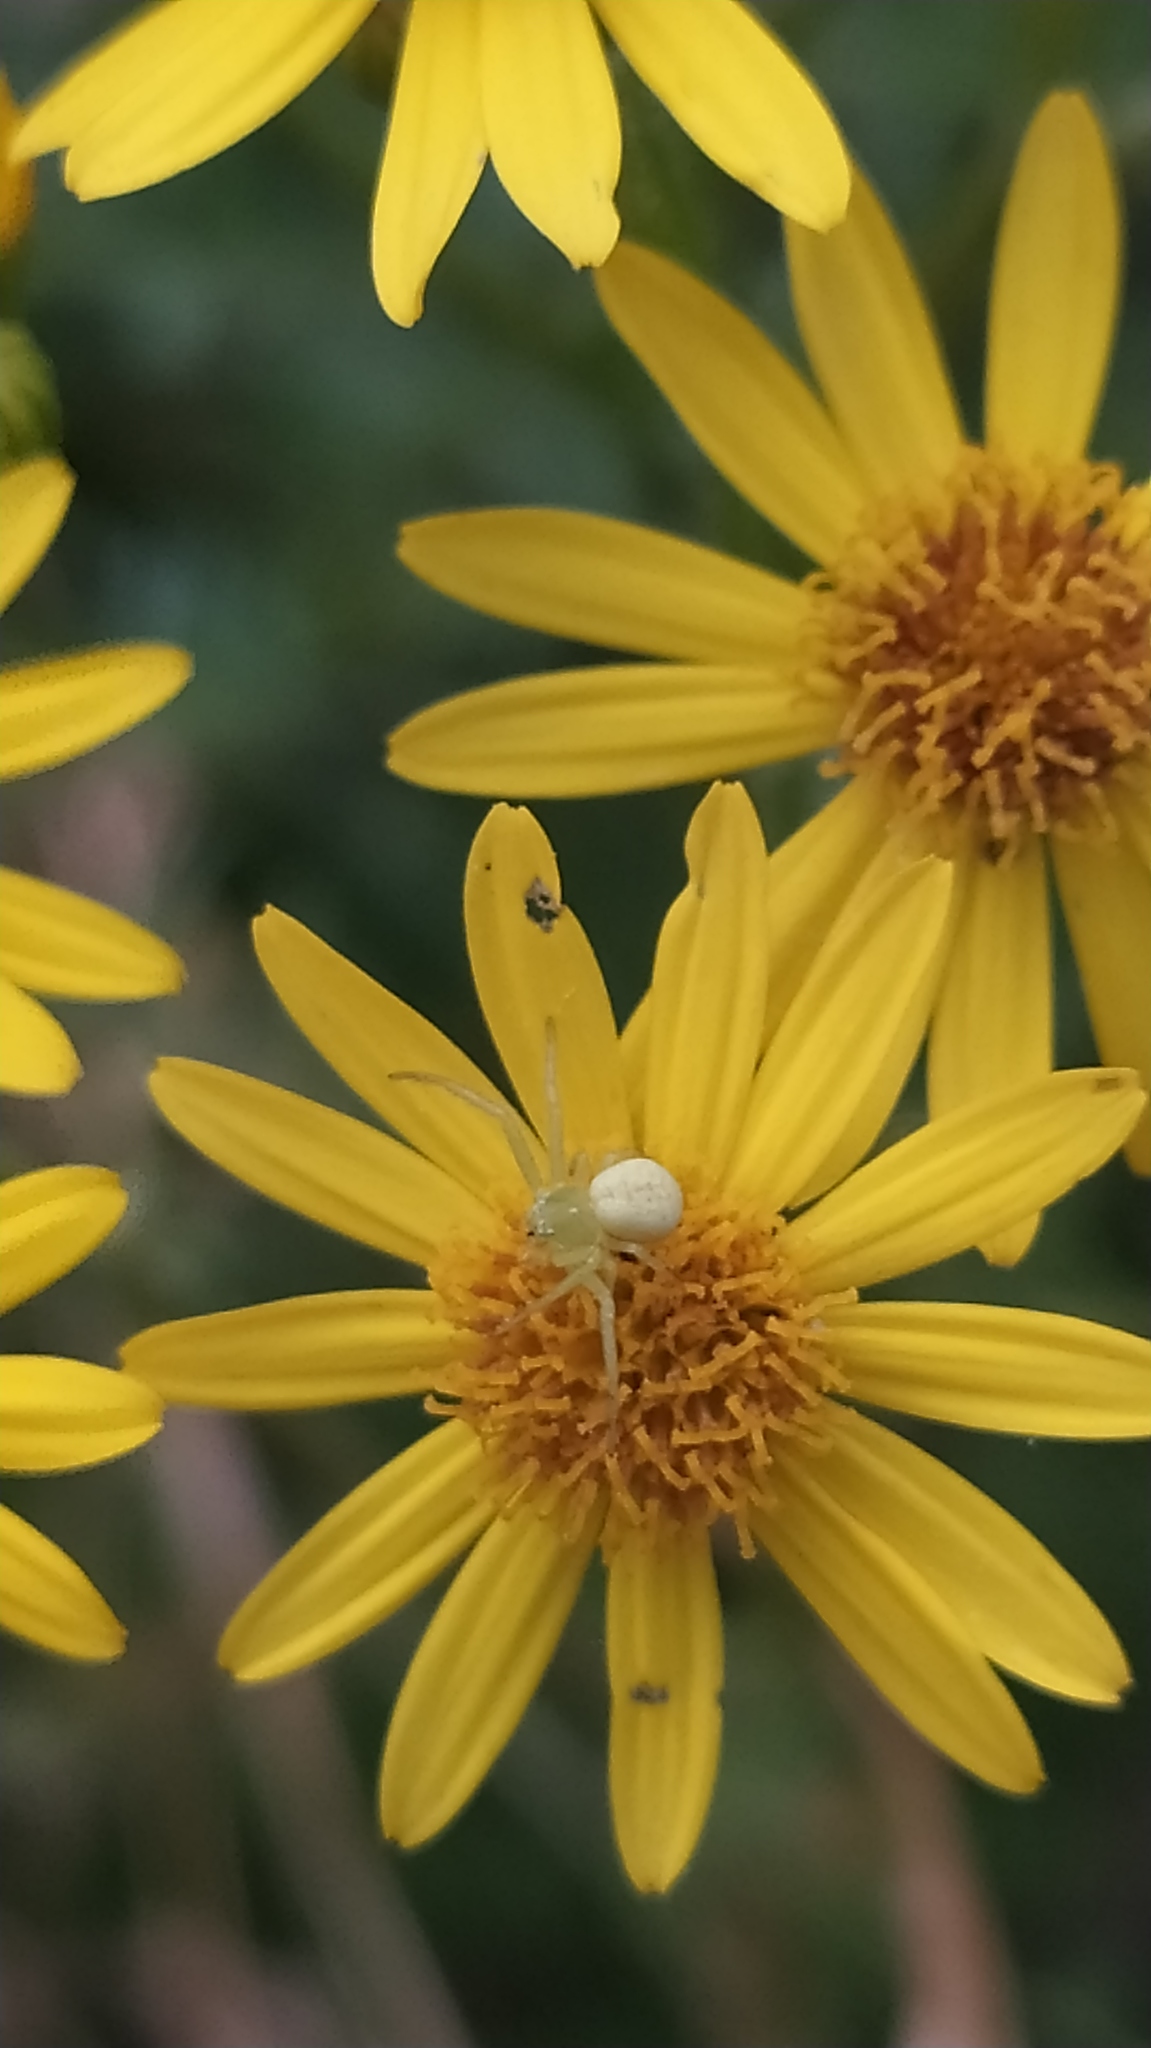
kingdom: Animalia
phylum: Arthropoda
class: Arachnida
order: Araneae
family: Thomisidae
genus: Misumena
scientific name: Misumena vatia
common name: Goldenrod crab spider
